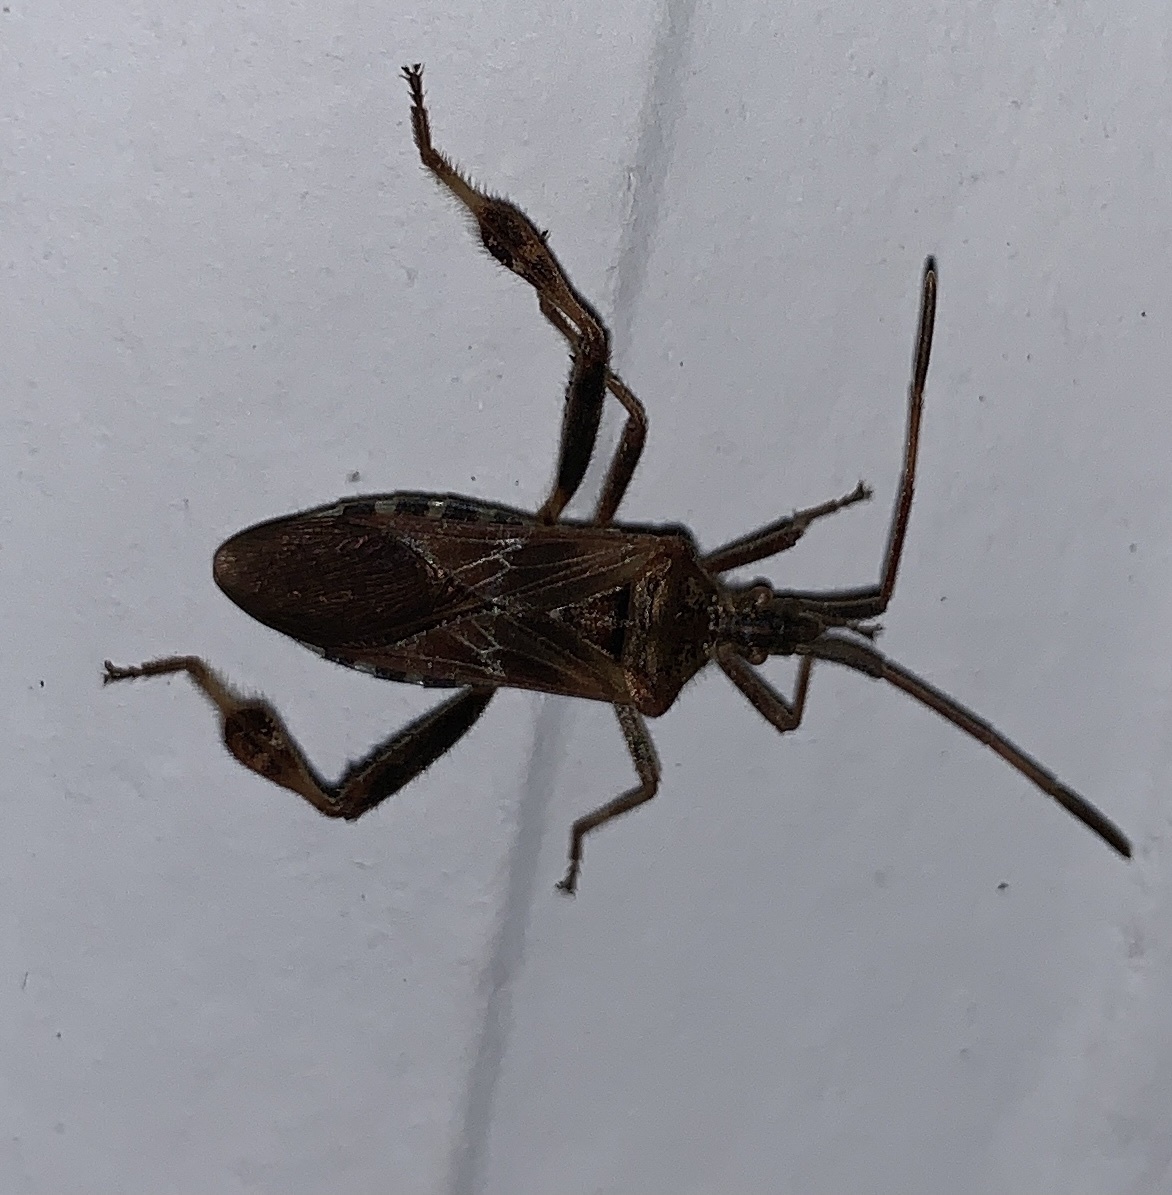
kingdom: Animalia
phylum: Arthropoda
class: Insecta
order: Hemiptera
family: Coreidae
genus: Leptoglossus
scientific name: Leptoglossus occidentalis
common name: Western conifer-seed bug
